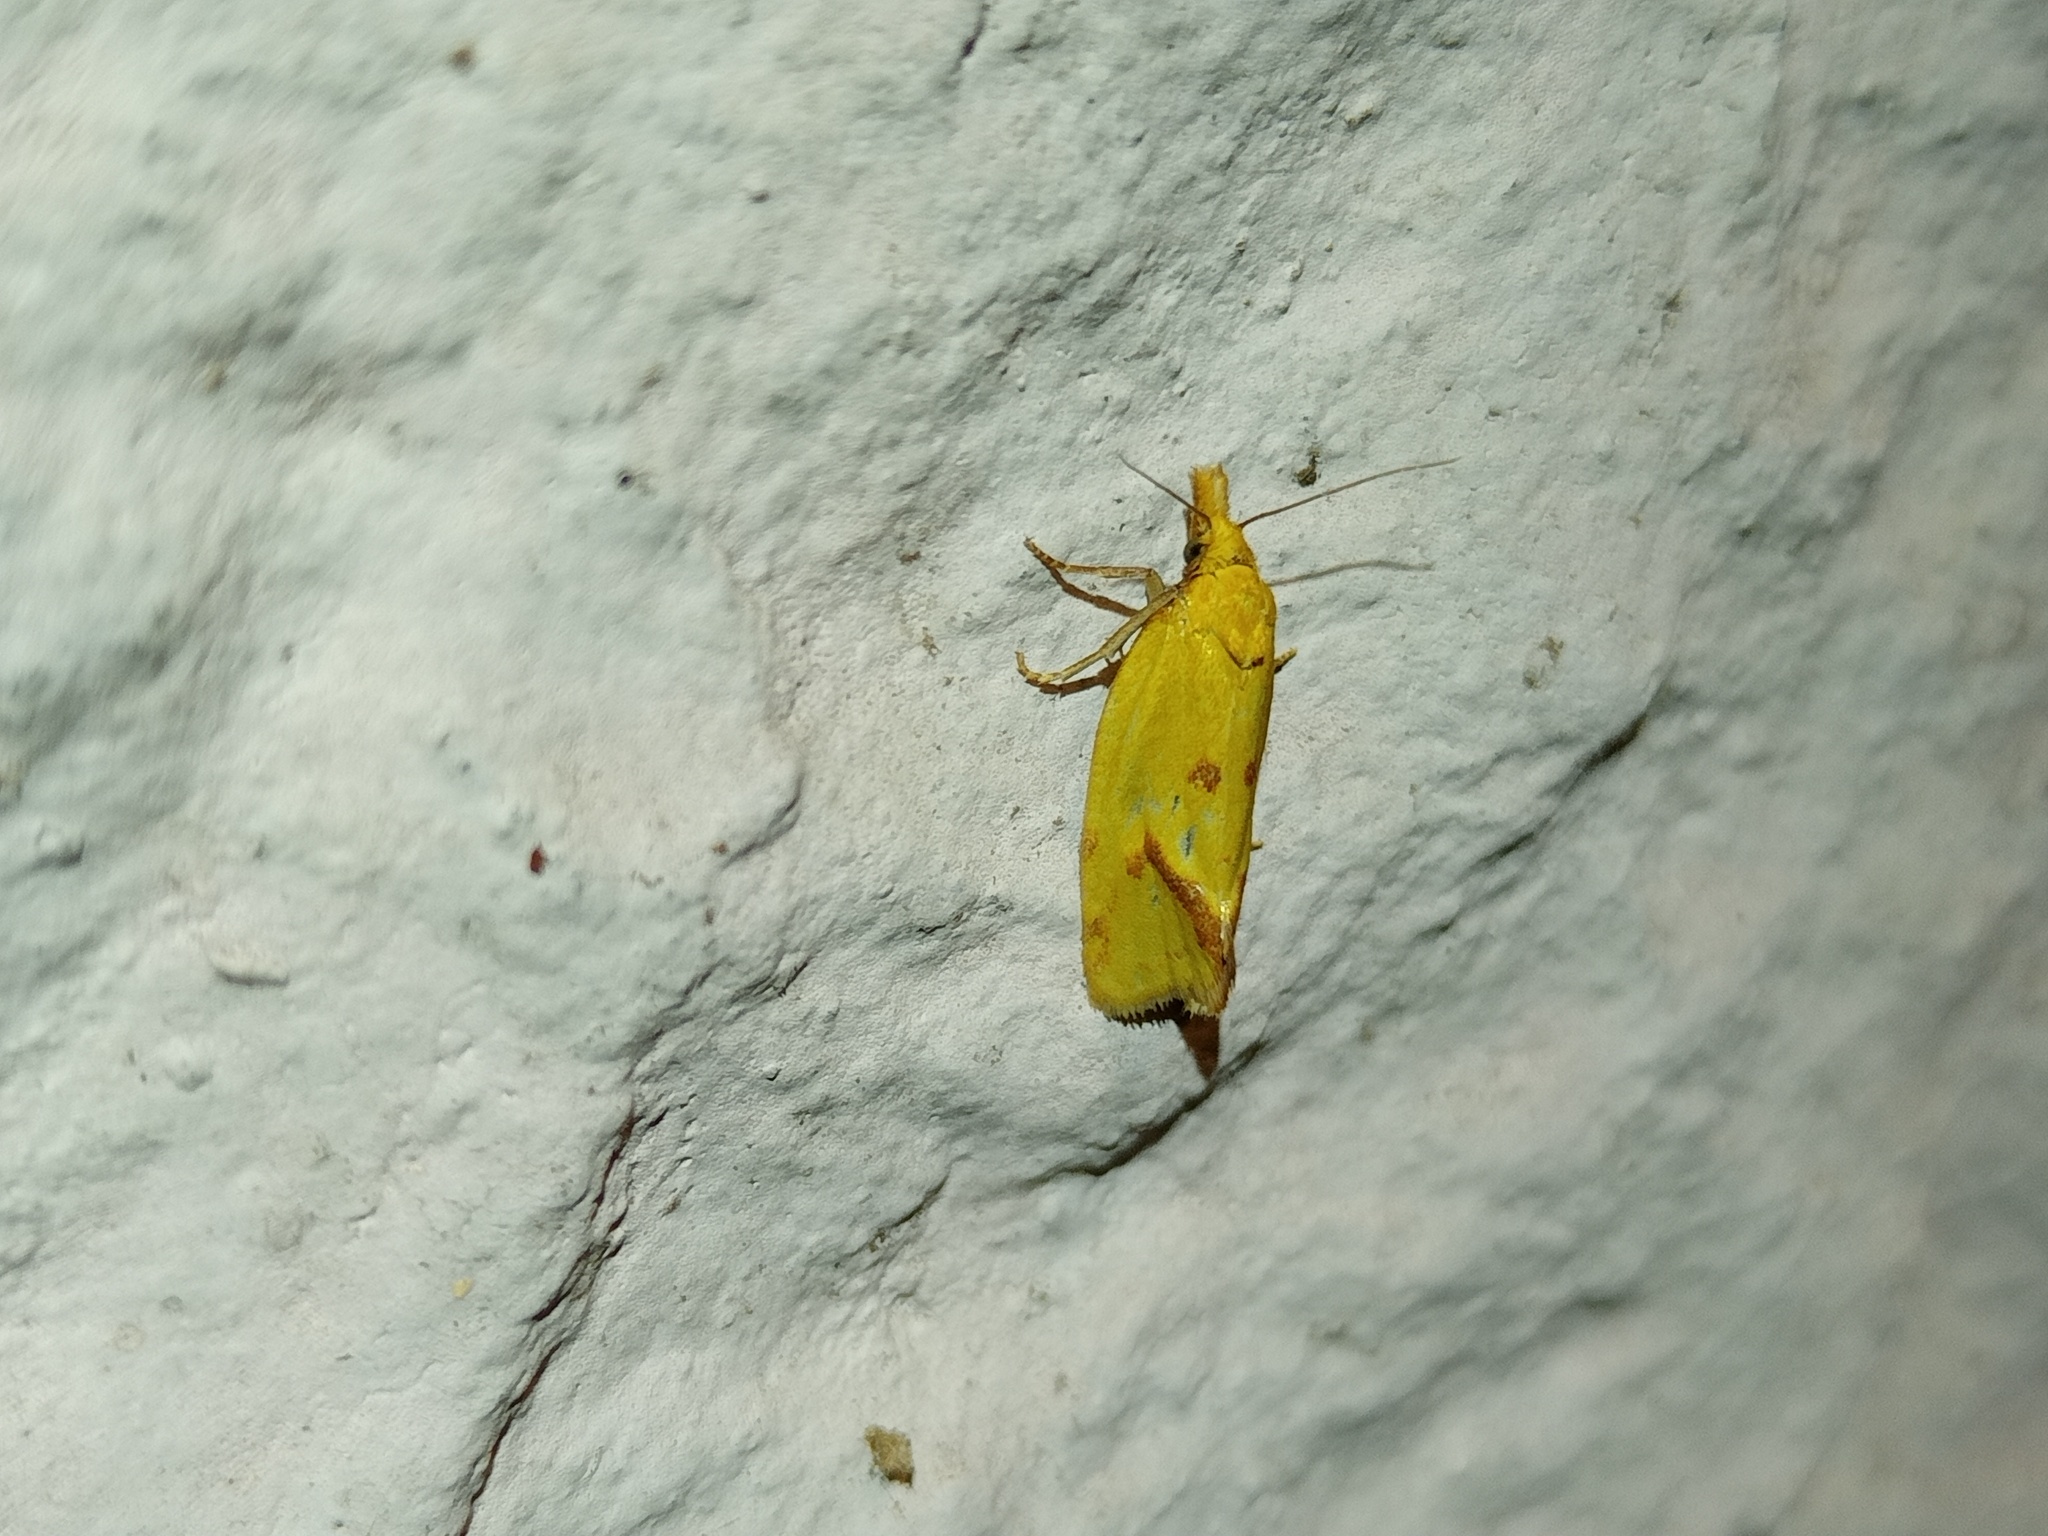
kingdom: Animalia
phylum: Arthropoda
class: Insecta
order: Lepidoptera
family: Tortricidae
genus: Agapeta
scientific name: Agapeta hamana
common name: Common yellow conch
